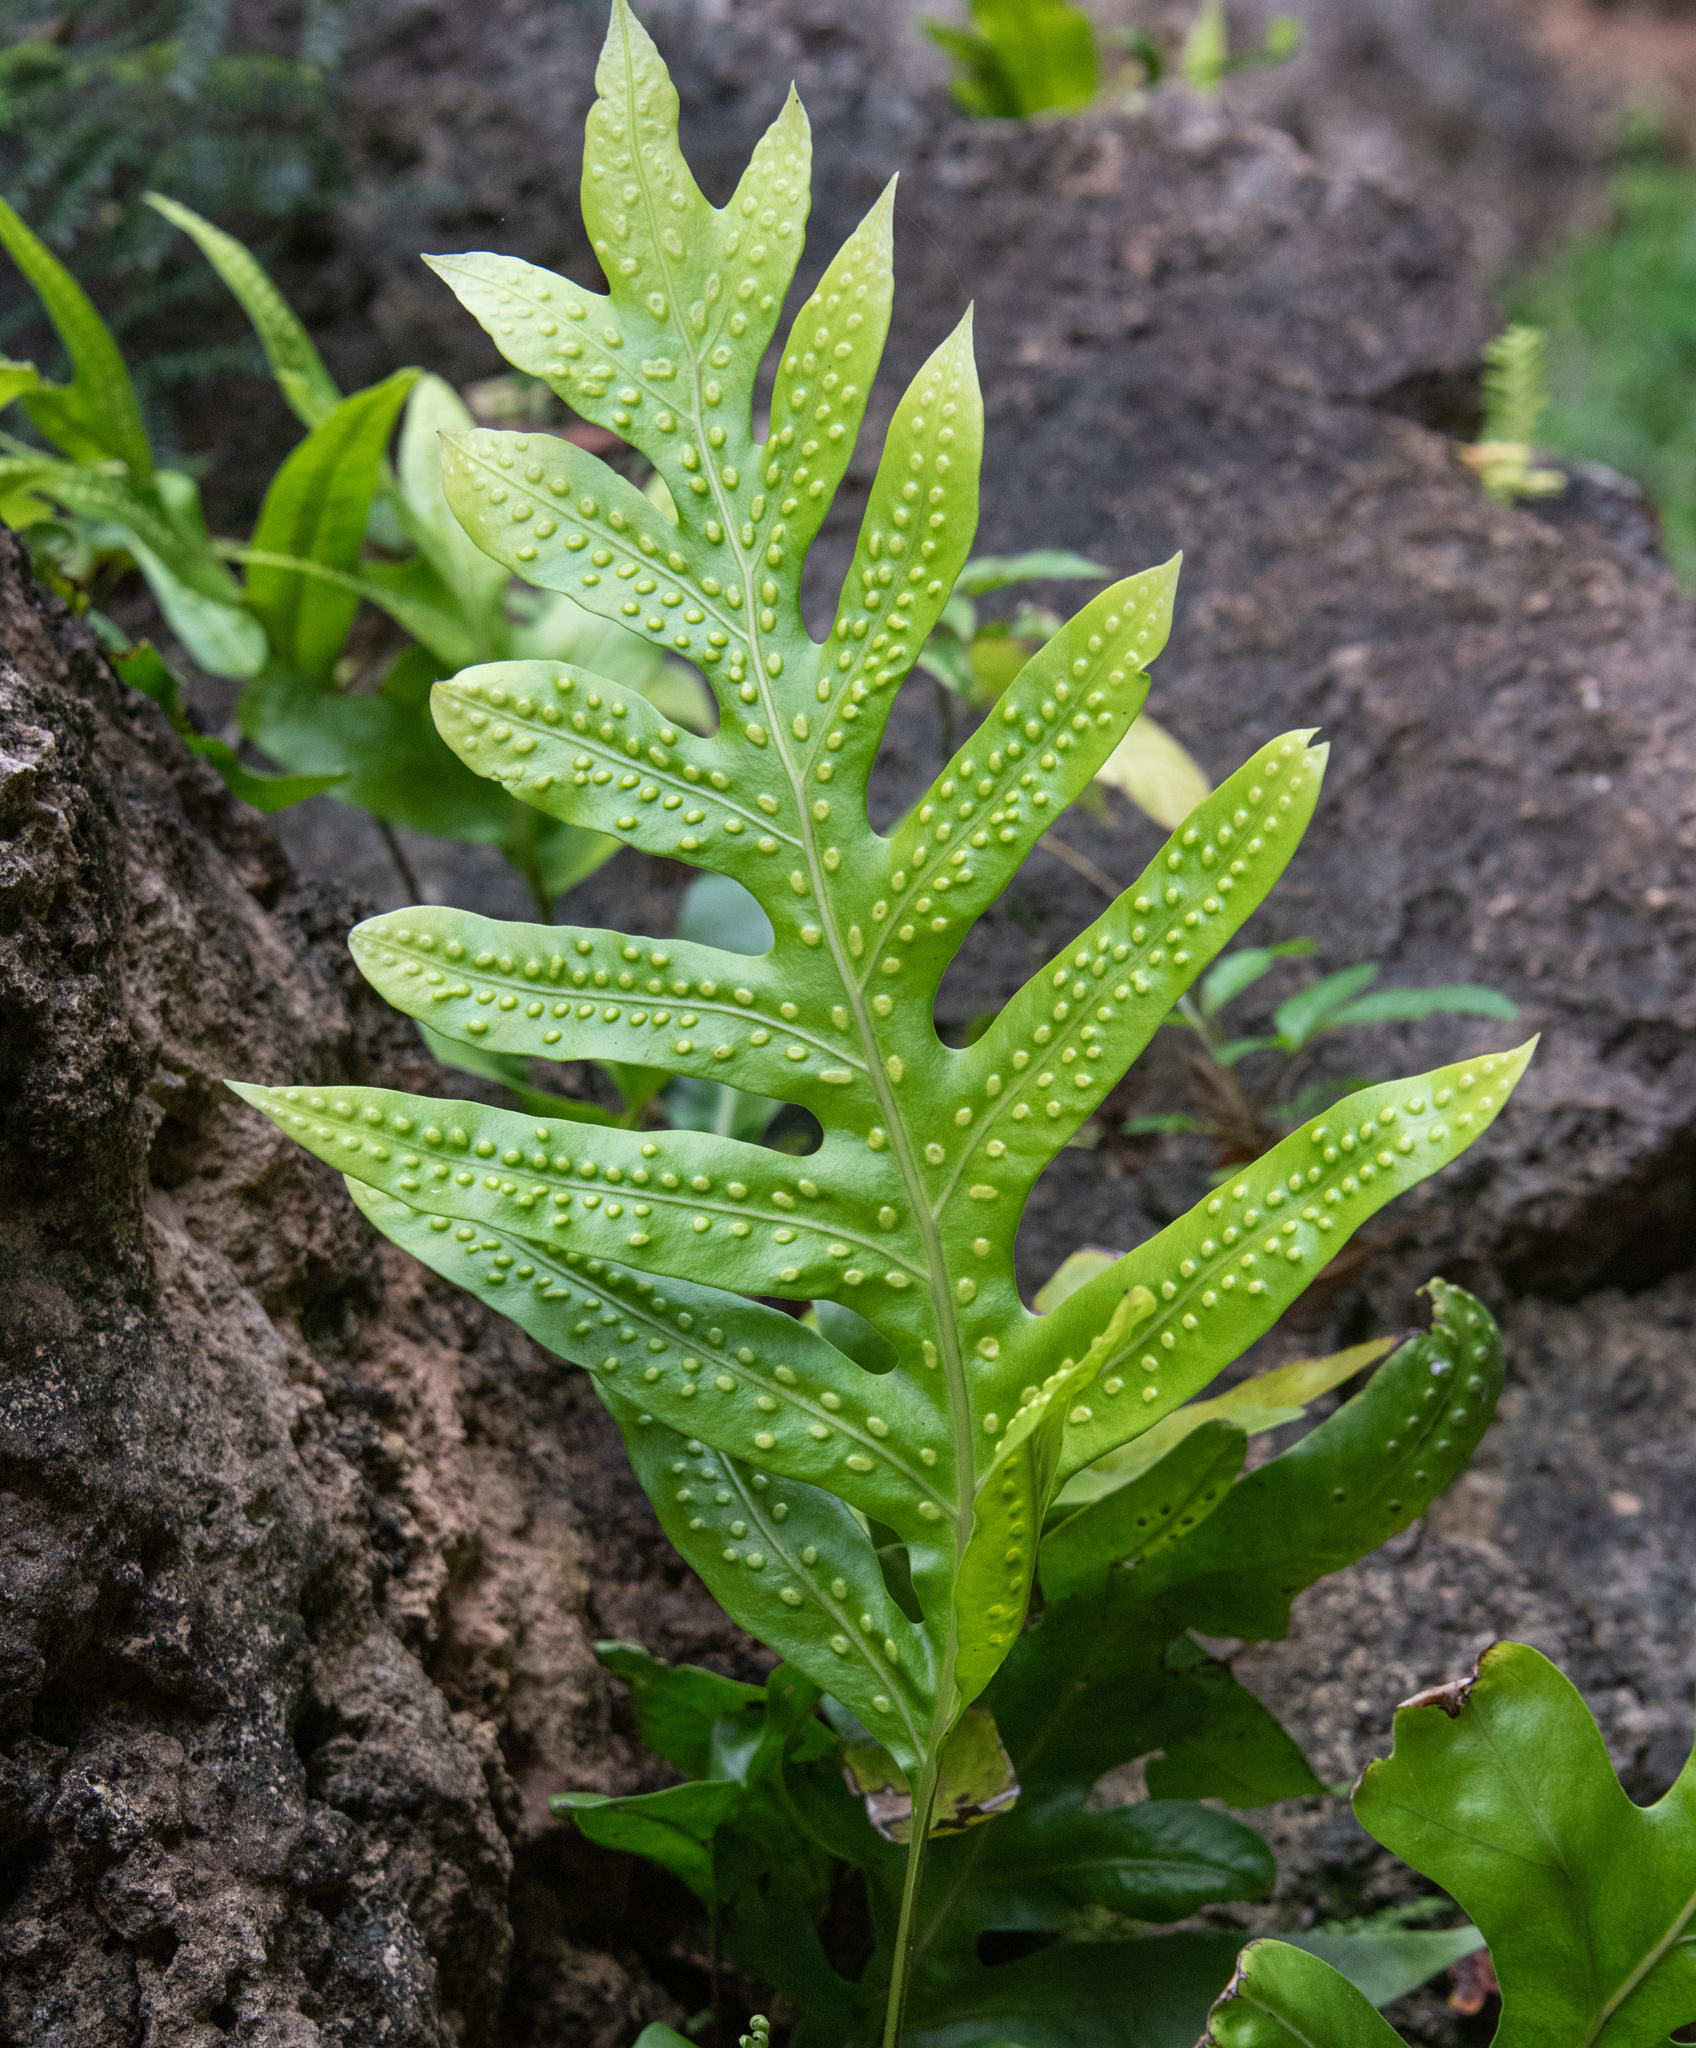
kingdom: Plantae
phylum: Tracheophyta
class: Polypodiopsida
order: Polypodiales
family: Polypodiaceae
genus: Microsorum
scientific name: Microsorum grossum
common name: Musk fern
